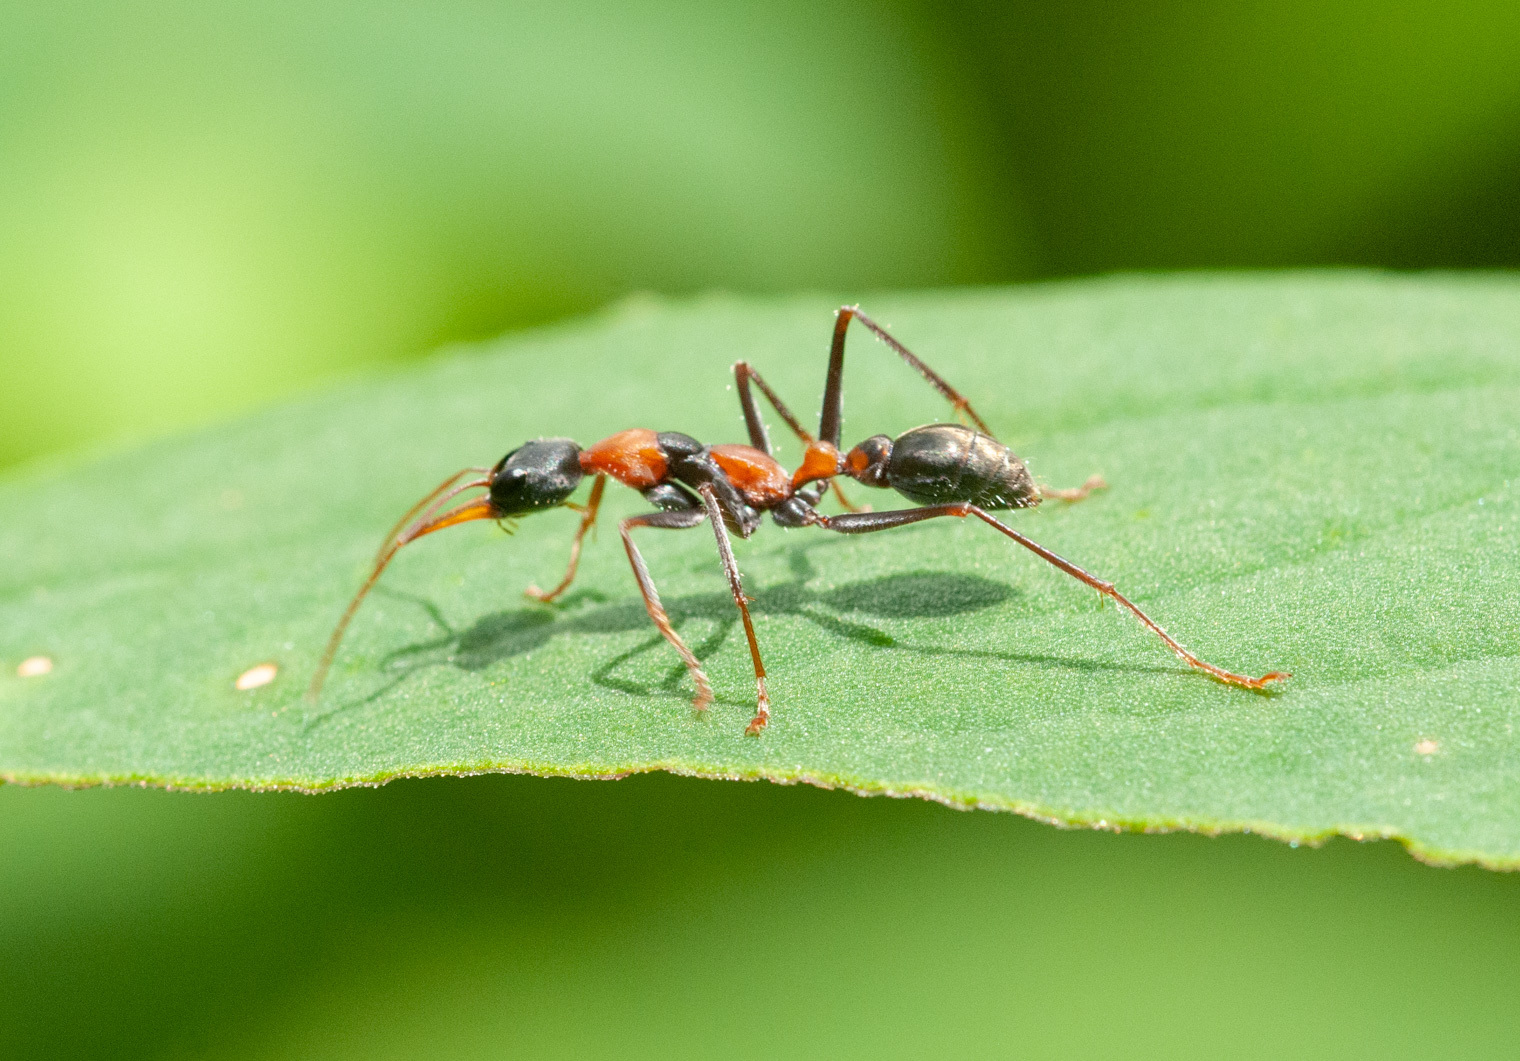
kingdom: Animalia
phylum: Arthropoda
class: Insecta
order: Hymenoptera
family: Formicidae
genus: Myrmecia
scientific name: Myrmecia nigrocincta
